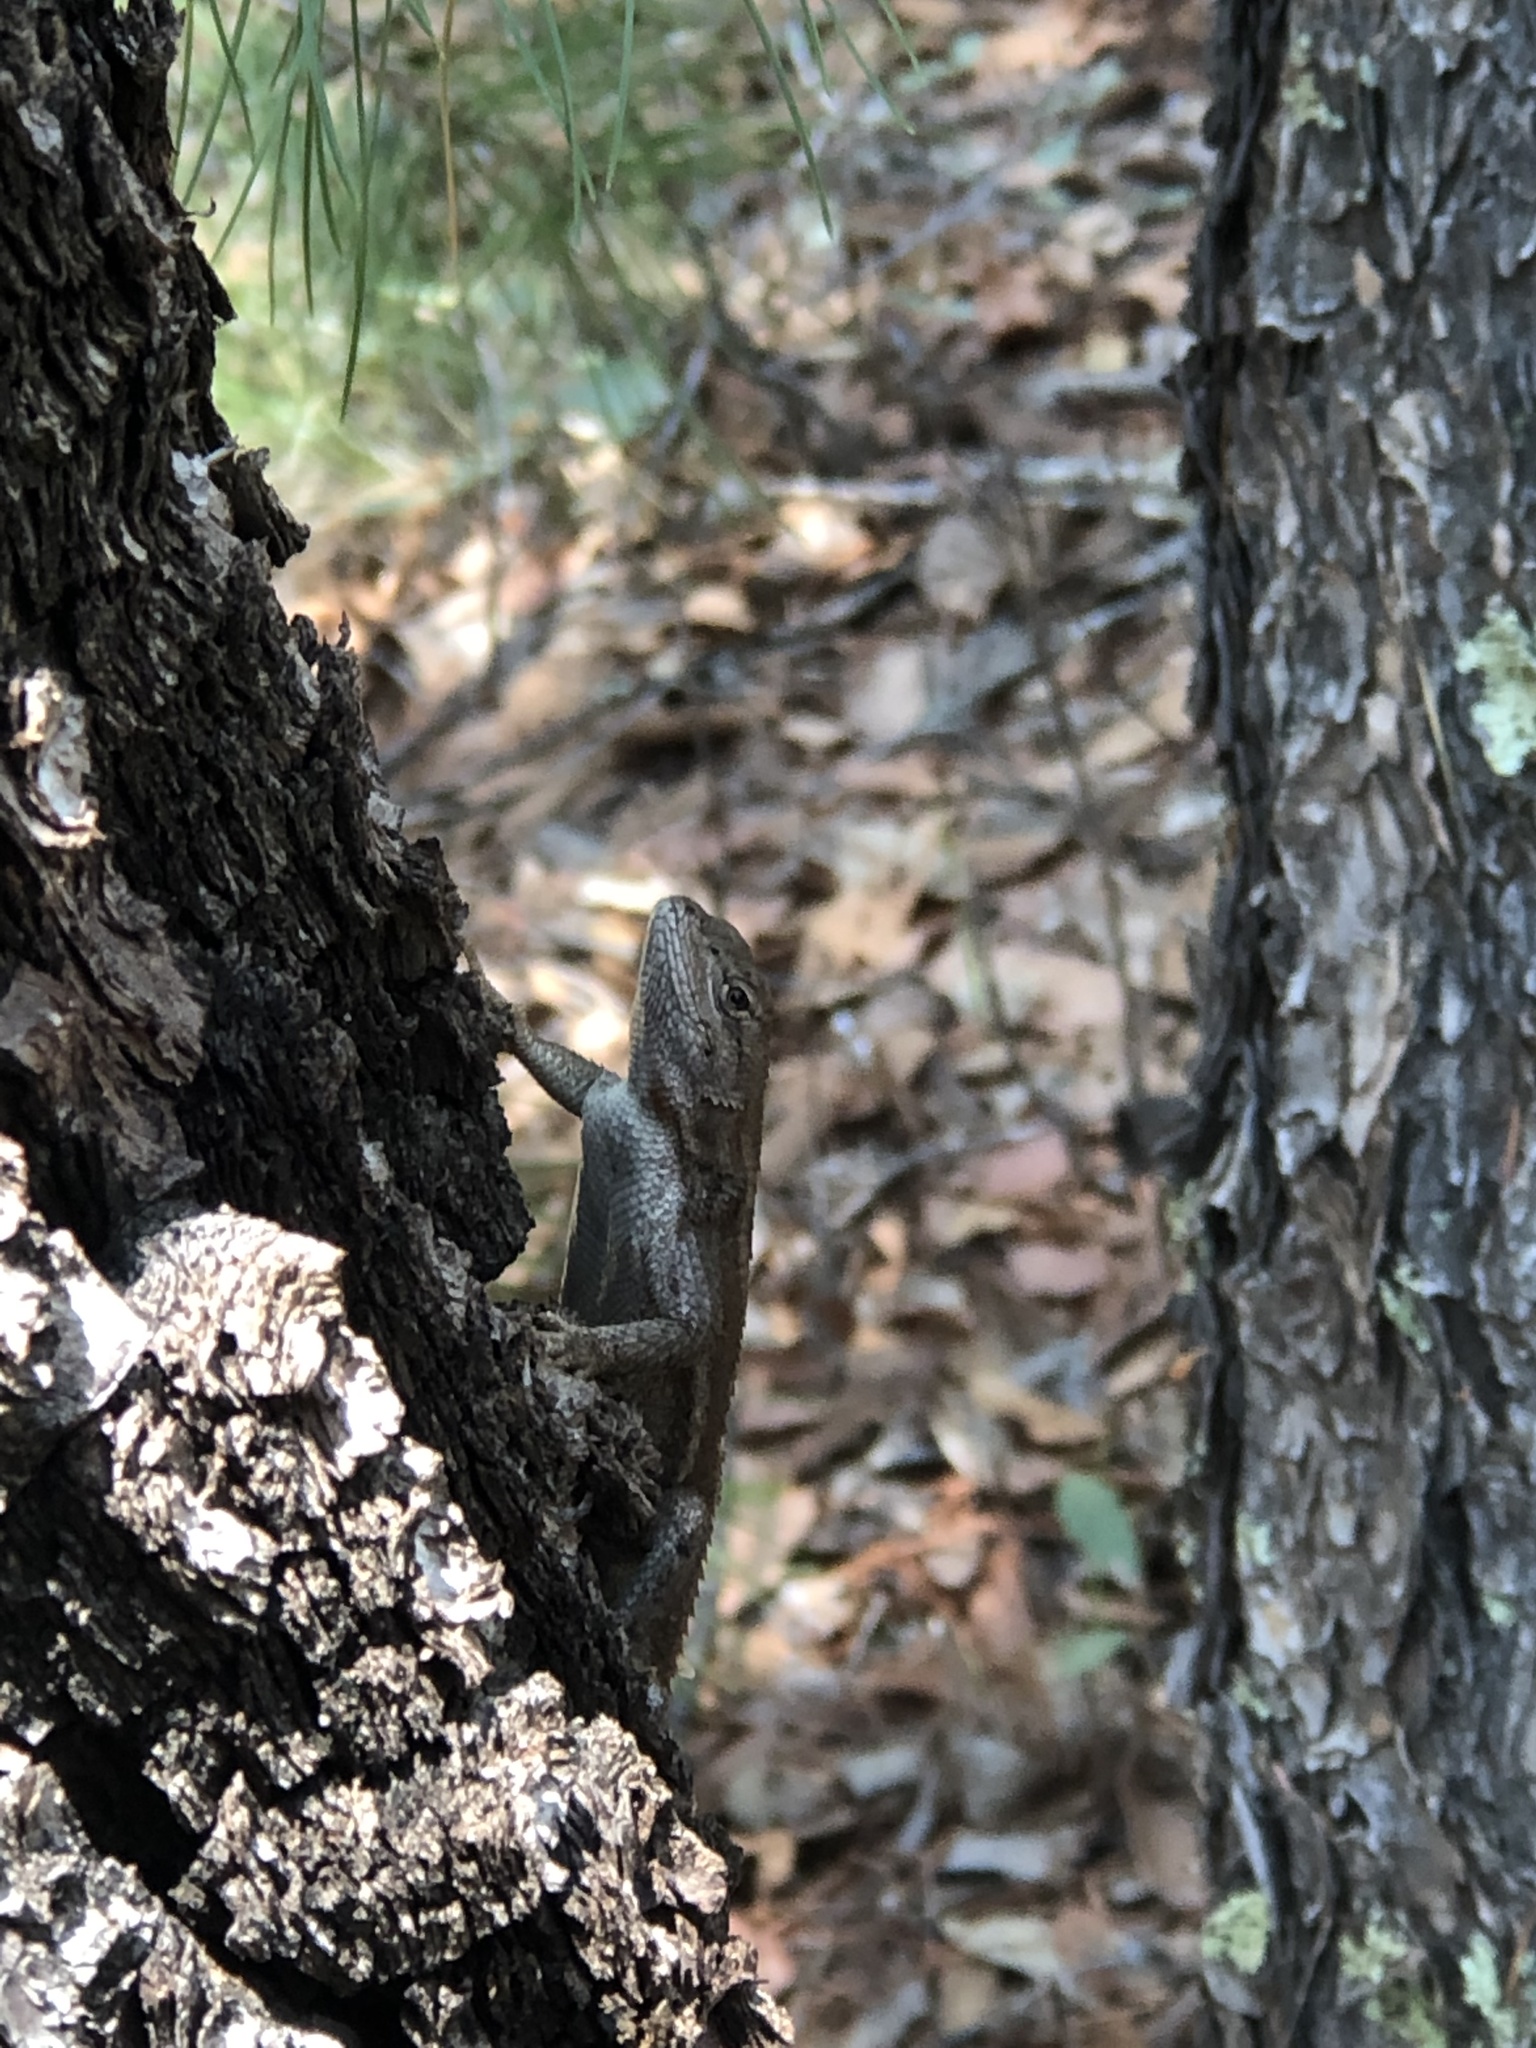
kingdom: Animalia
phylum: Chordata
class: Squamata
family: Phrynosomatidae
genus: Sceloporus
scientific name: Sceloporus
